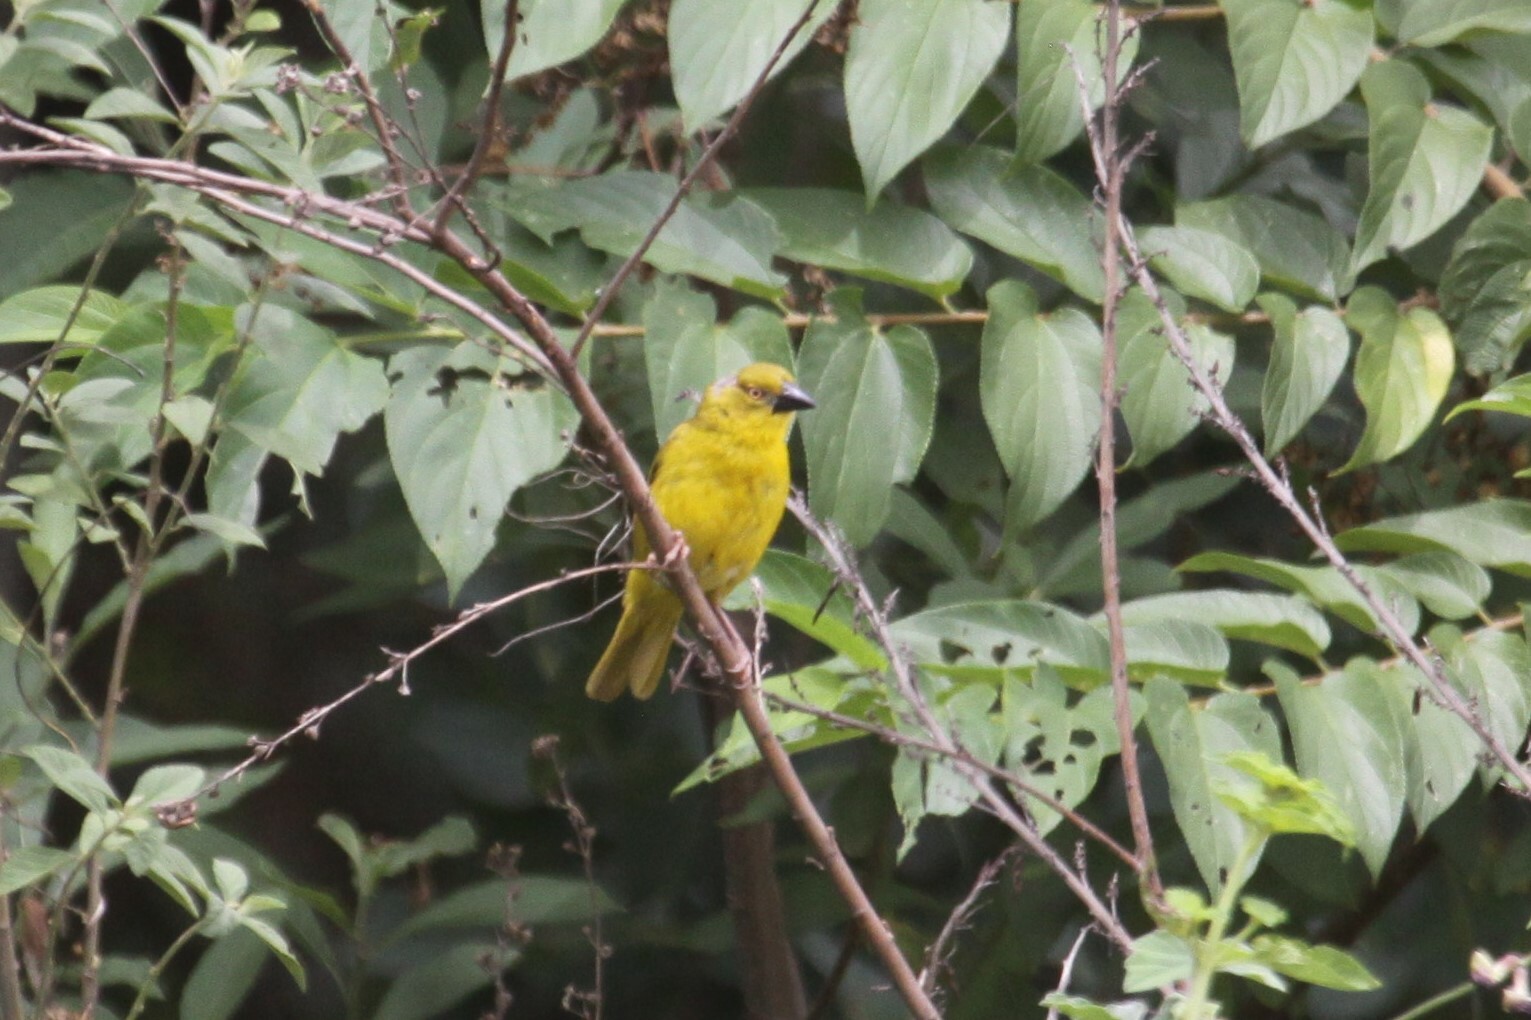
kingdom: Animalia
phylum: Chordata
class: Aves
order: Passeriformes
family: Ploceidae
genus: Ploceus
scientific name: Ploceus xanthops
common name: Holub's golden weaver
